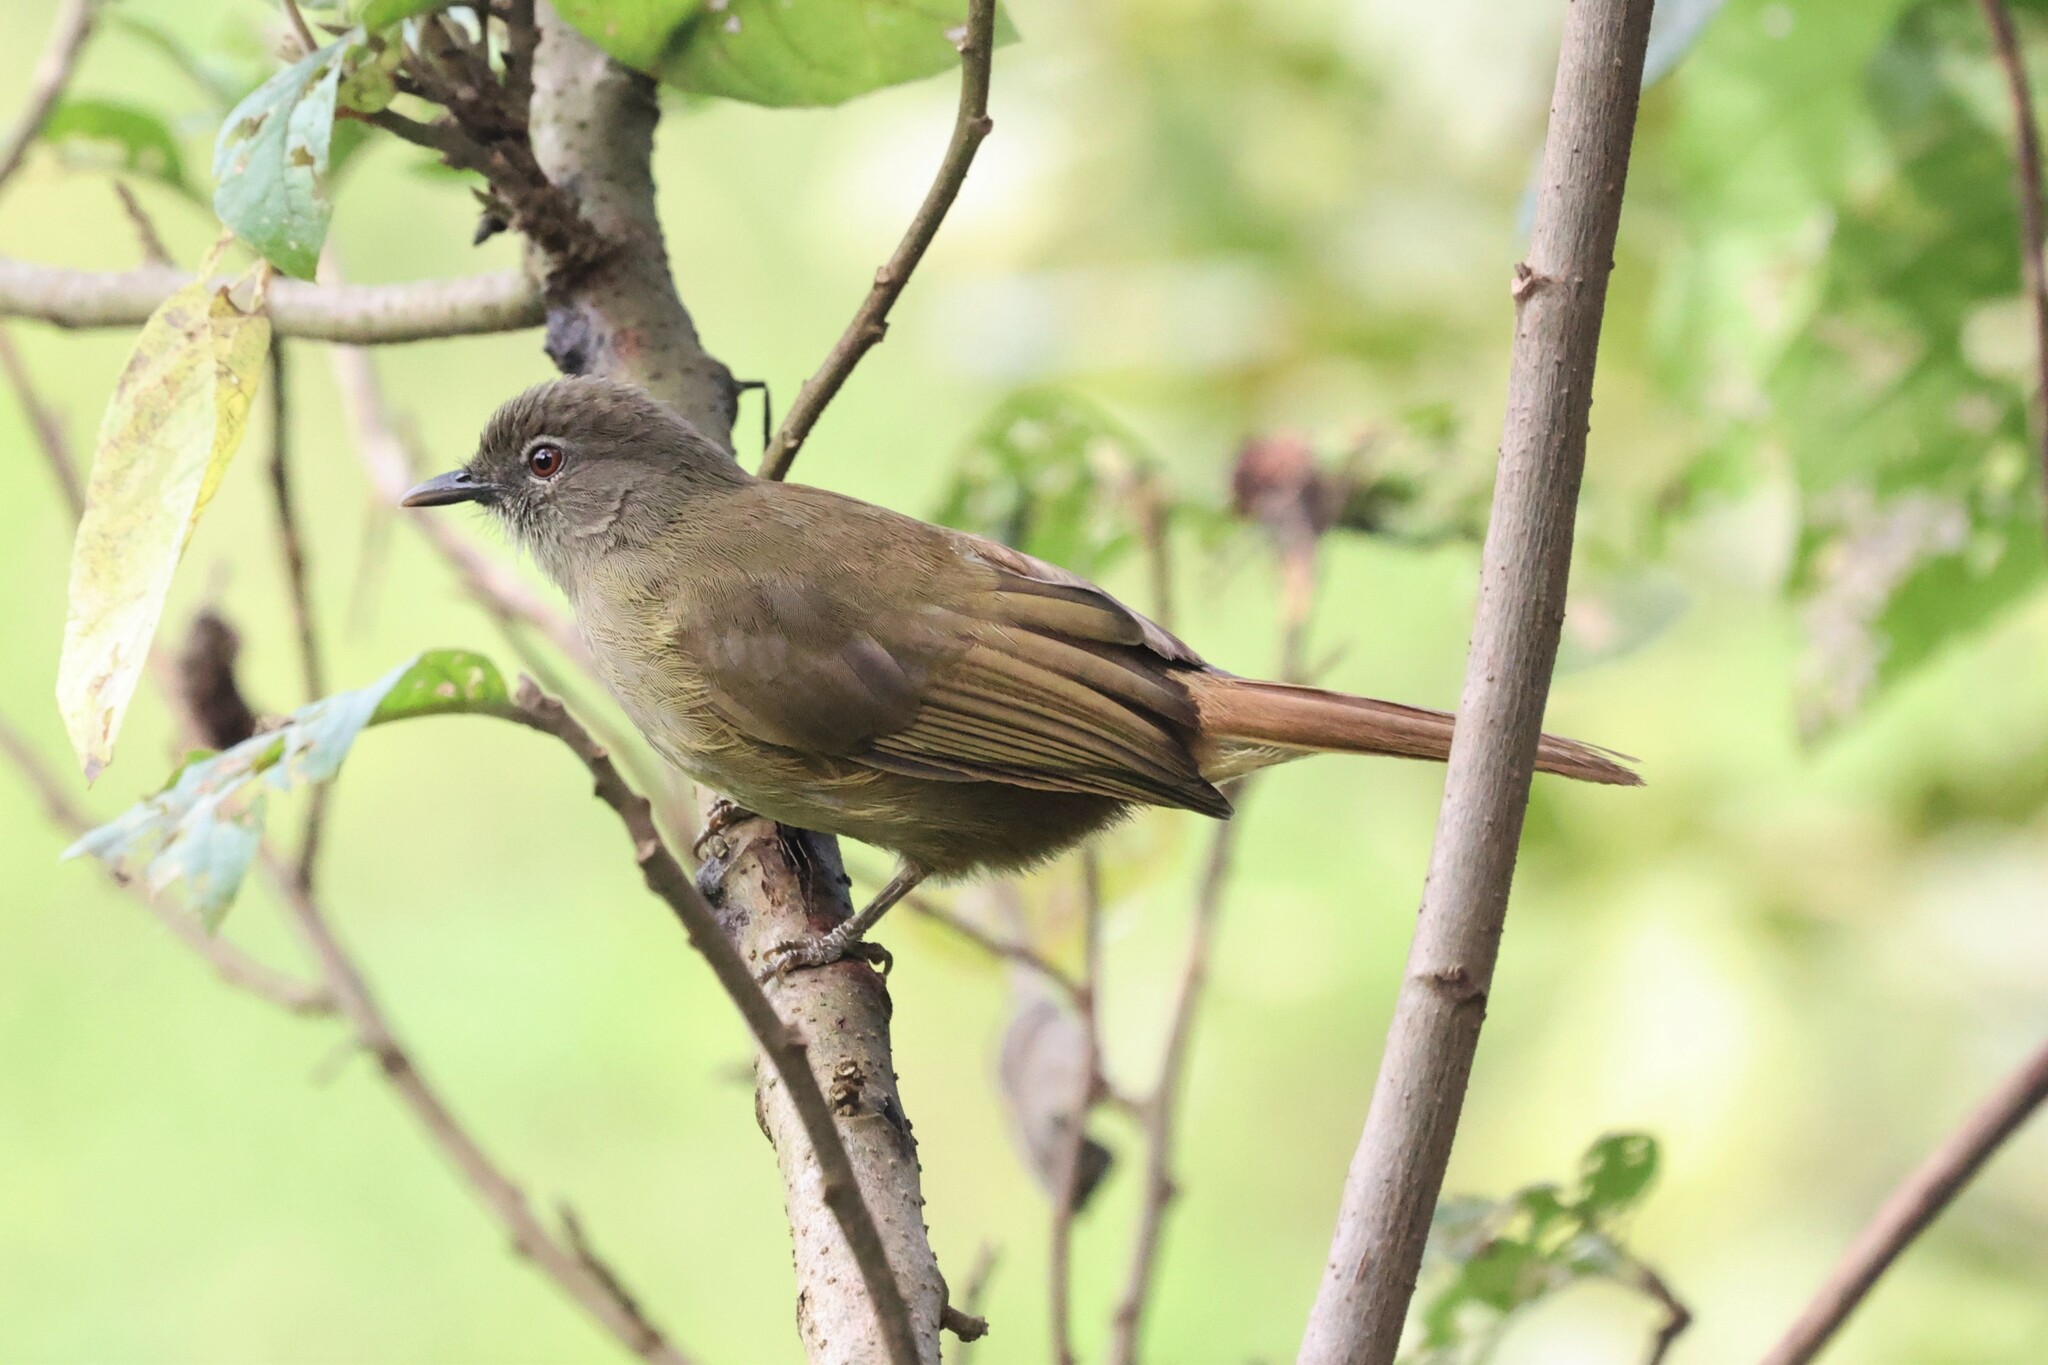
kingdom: Animalia
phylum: Chordata
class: Aves
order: Passeriformes
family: Pycnonotidae
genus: Eurillas
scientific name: Eurillas curvirostris
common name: Plain greenbul
